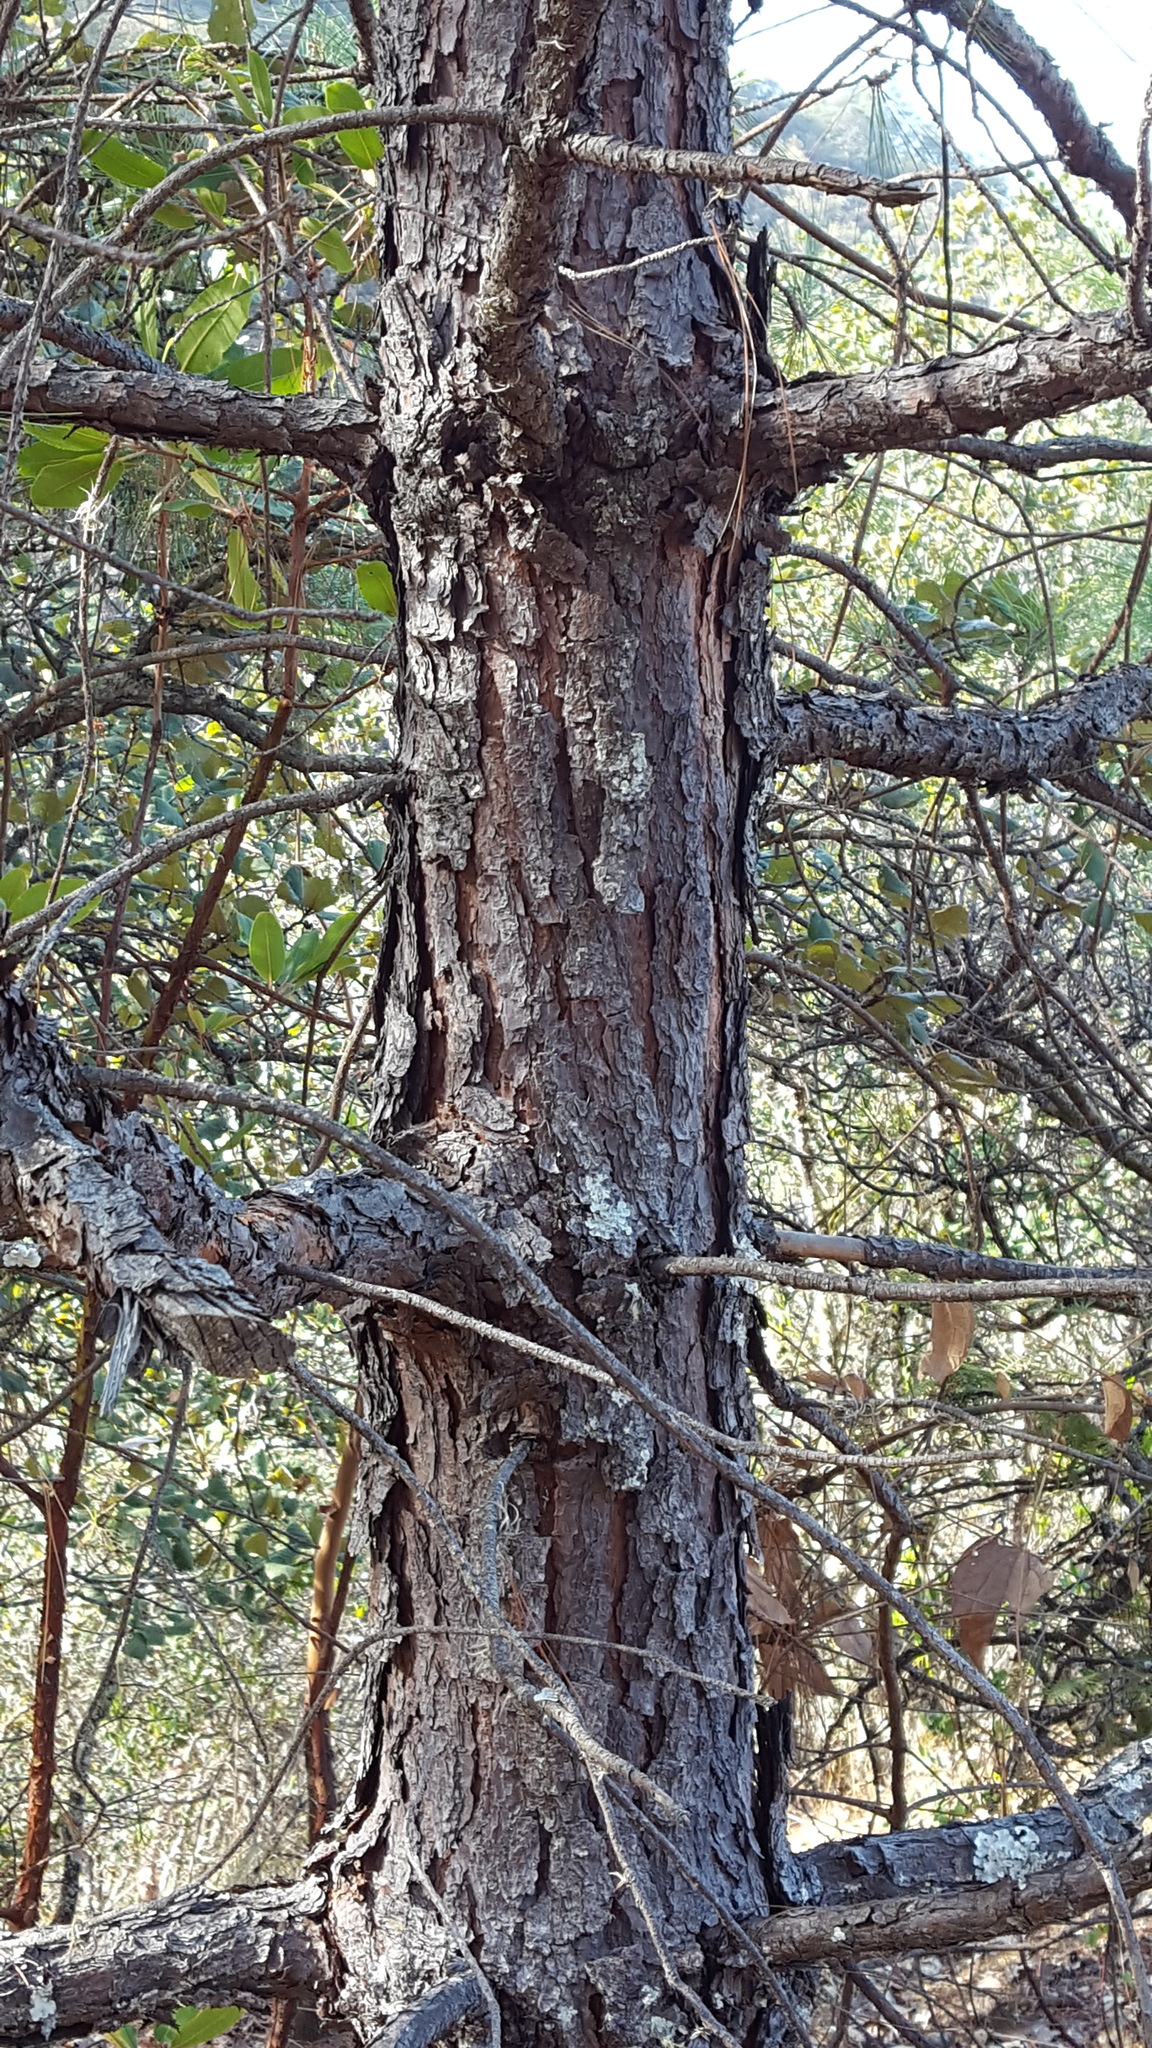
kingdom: Plantae
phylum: Tracheophyta
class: Pinopsida
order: Pinales
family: Pinaceae
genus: Pinus
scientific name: Pinus teocote
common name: Aztec pine
